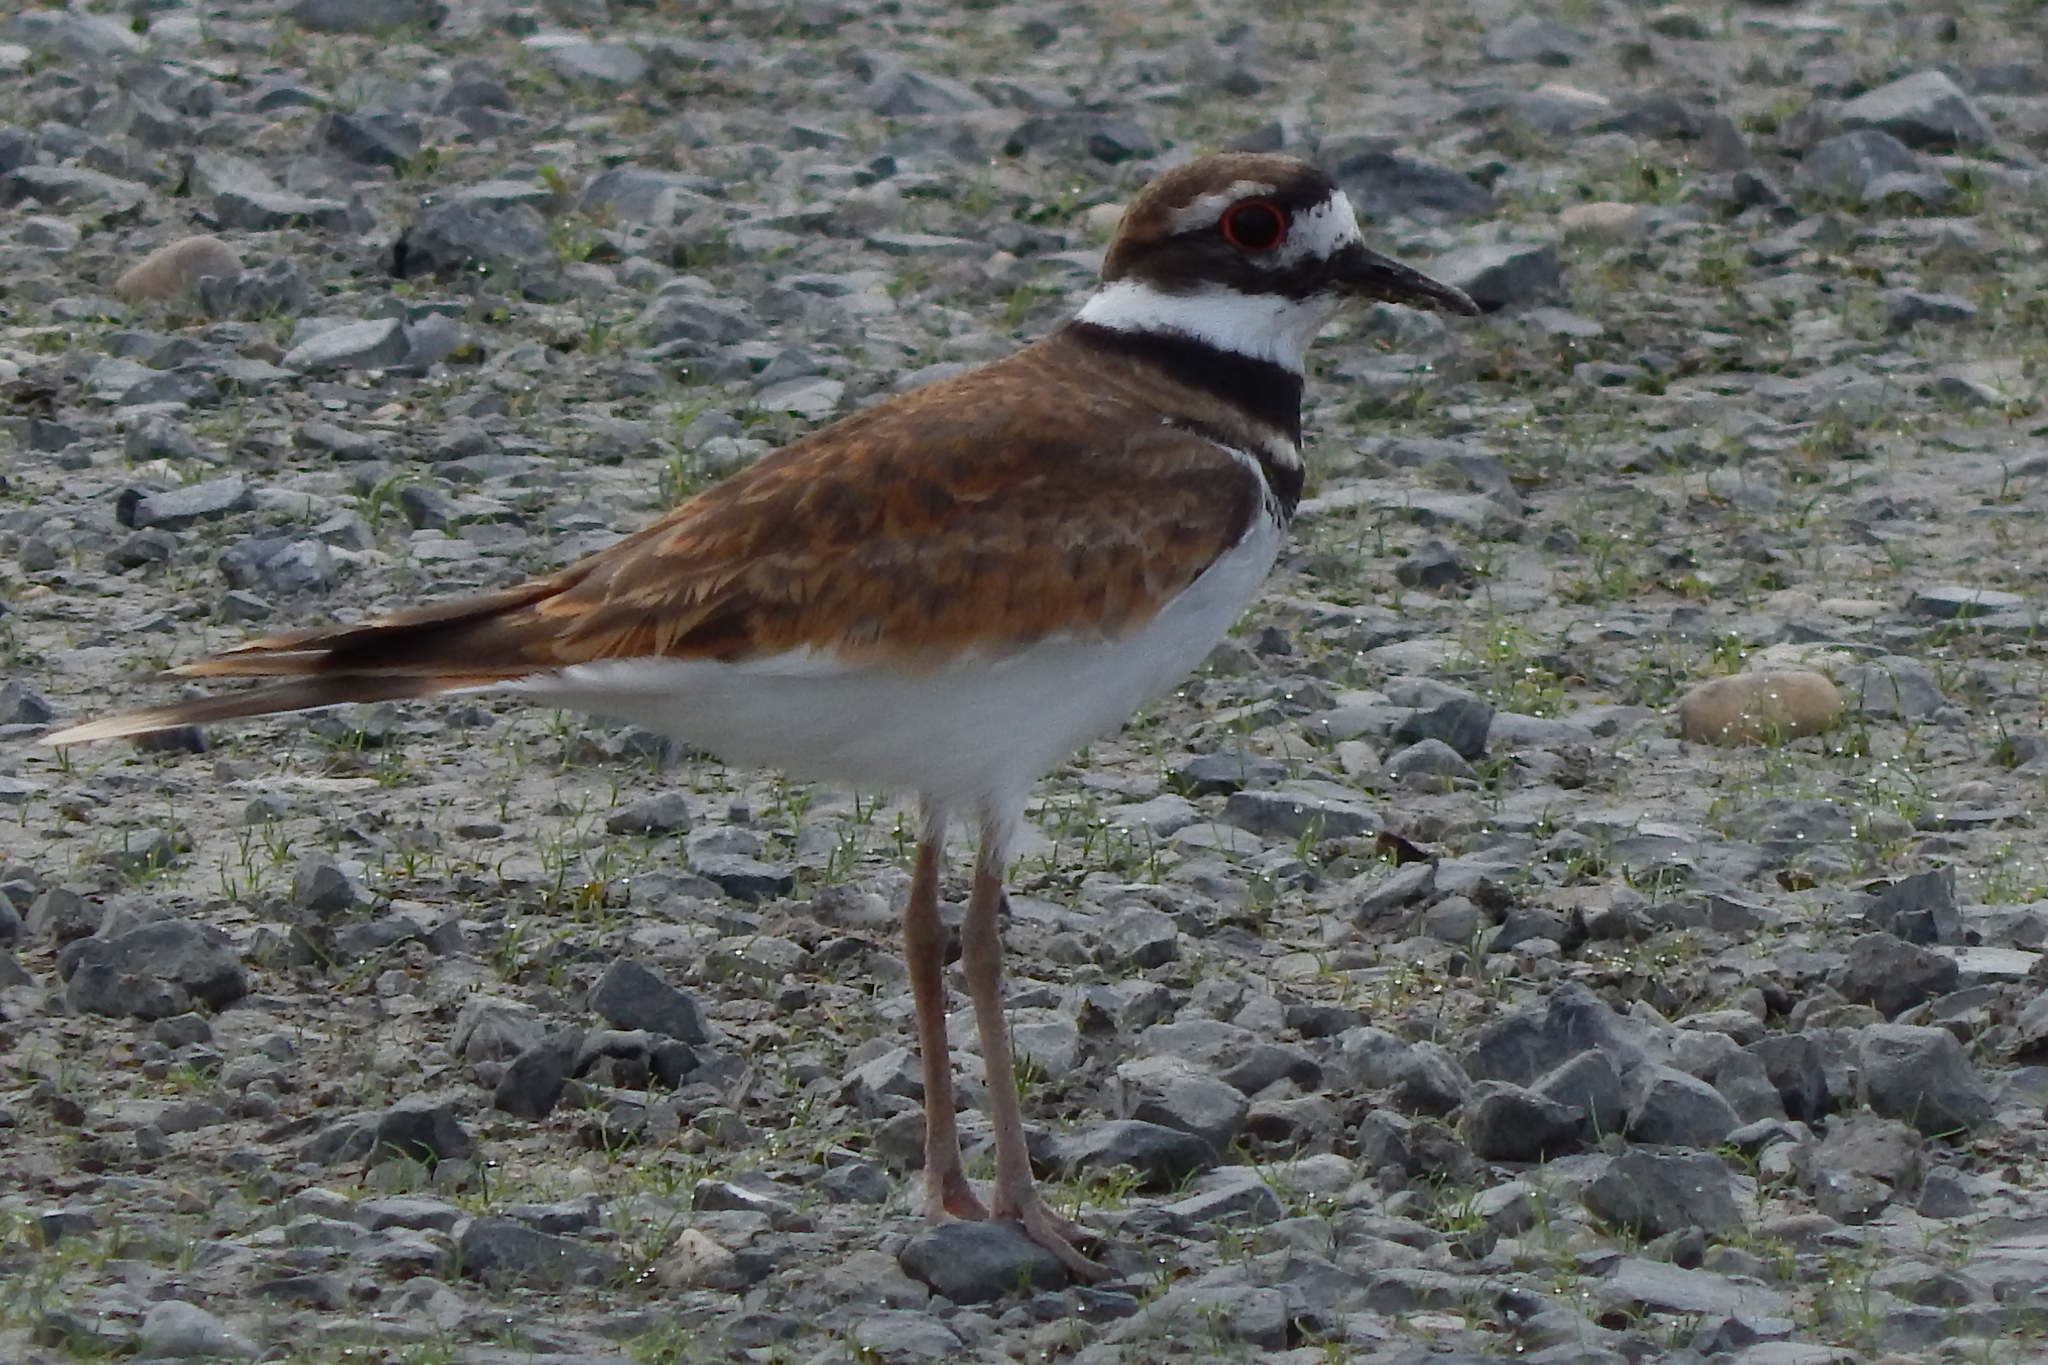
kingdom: Animalia
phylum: Chordata
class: Aves
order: Charadriiformes
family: Charadriidae
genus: Charadrius
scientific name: Charadrius vociferus
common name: Killdeer
